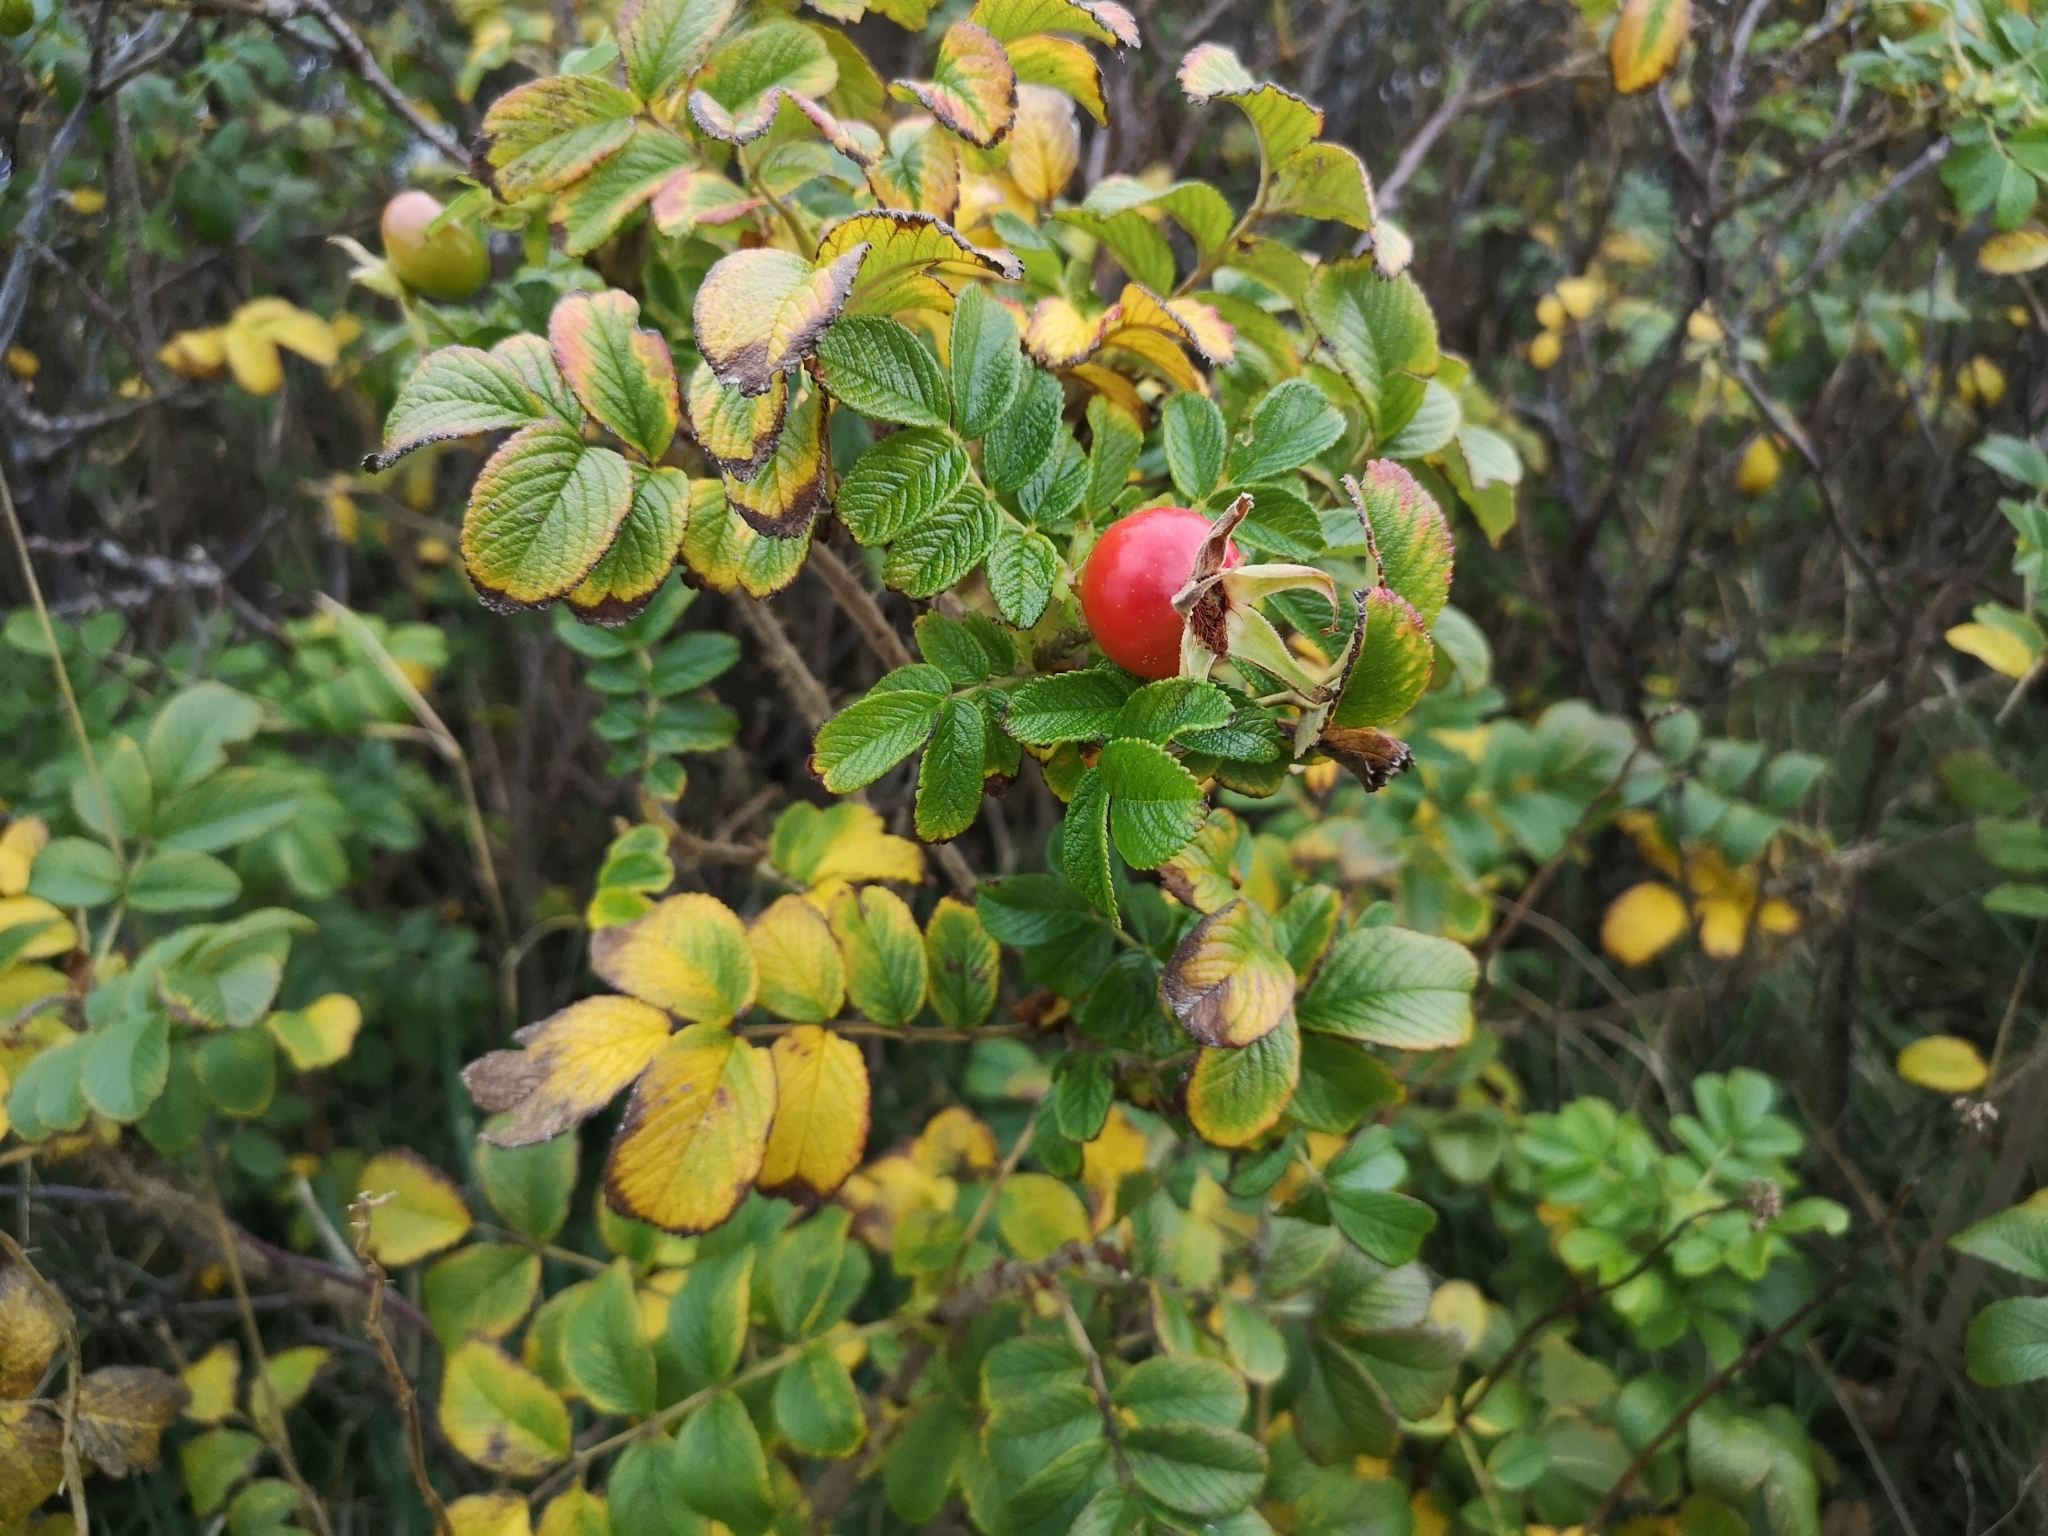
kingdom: Plantae
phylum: Tracheophyta
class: Magnoliopsida
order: Rosales
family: Rosaceae
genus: Rosa
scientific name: Rosa rugosa
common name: Japanese rose
